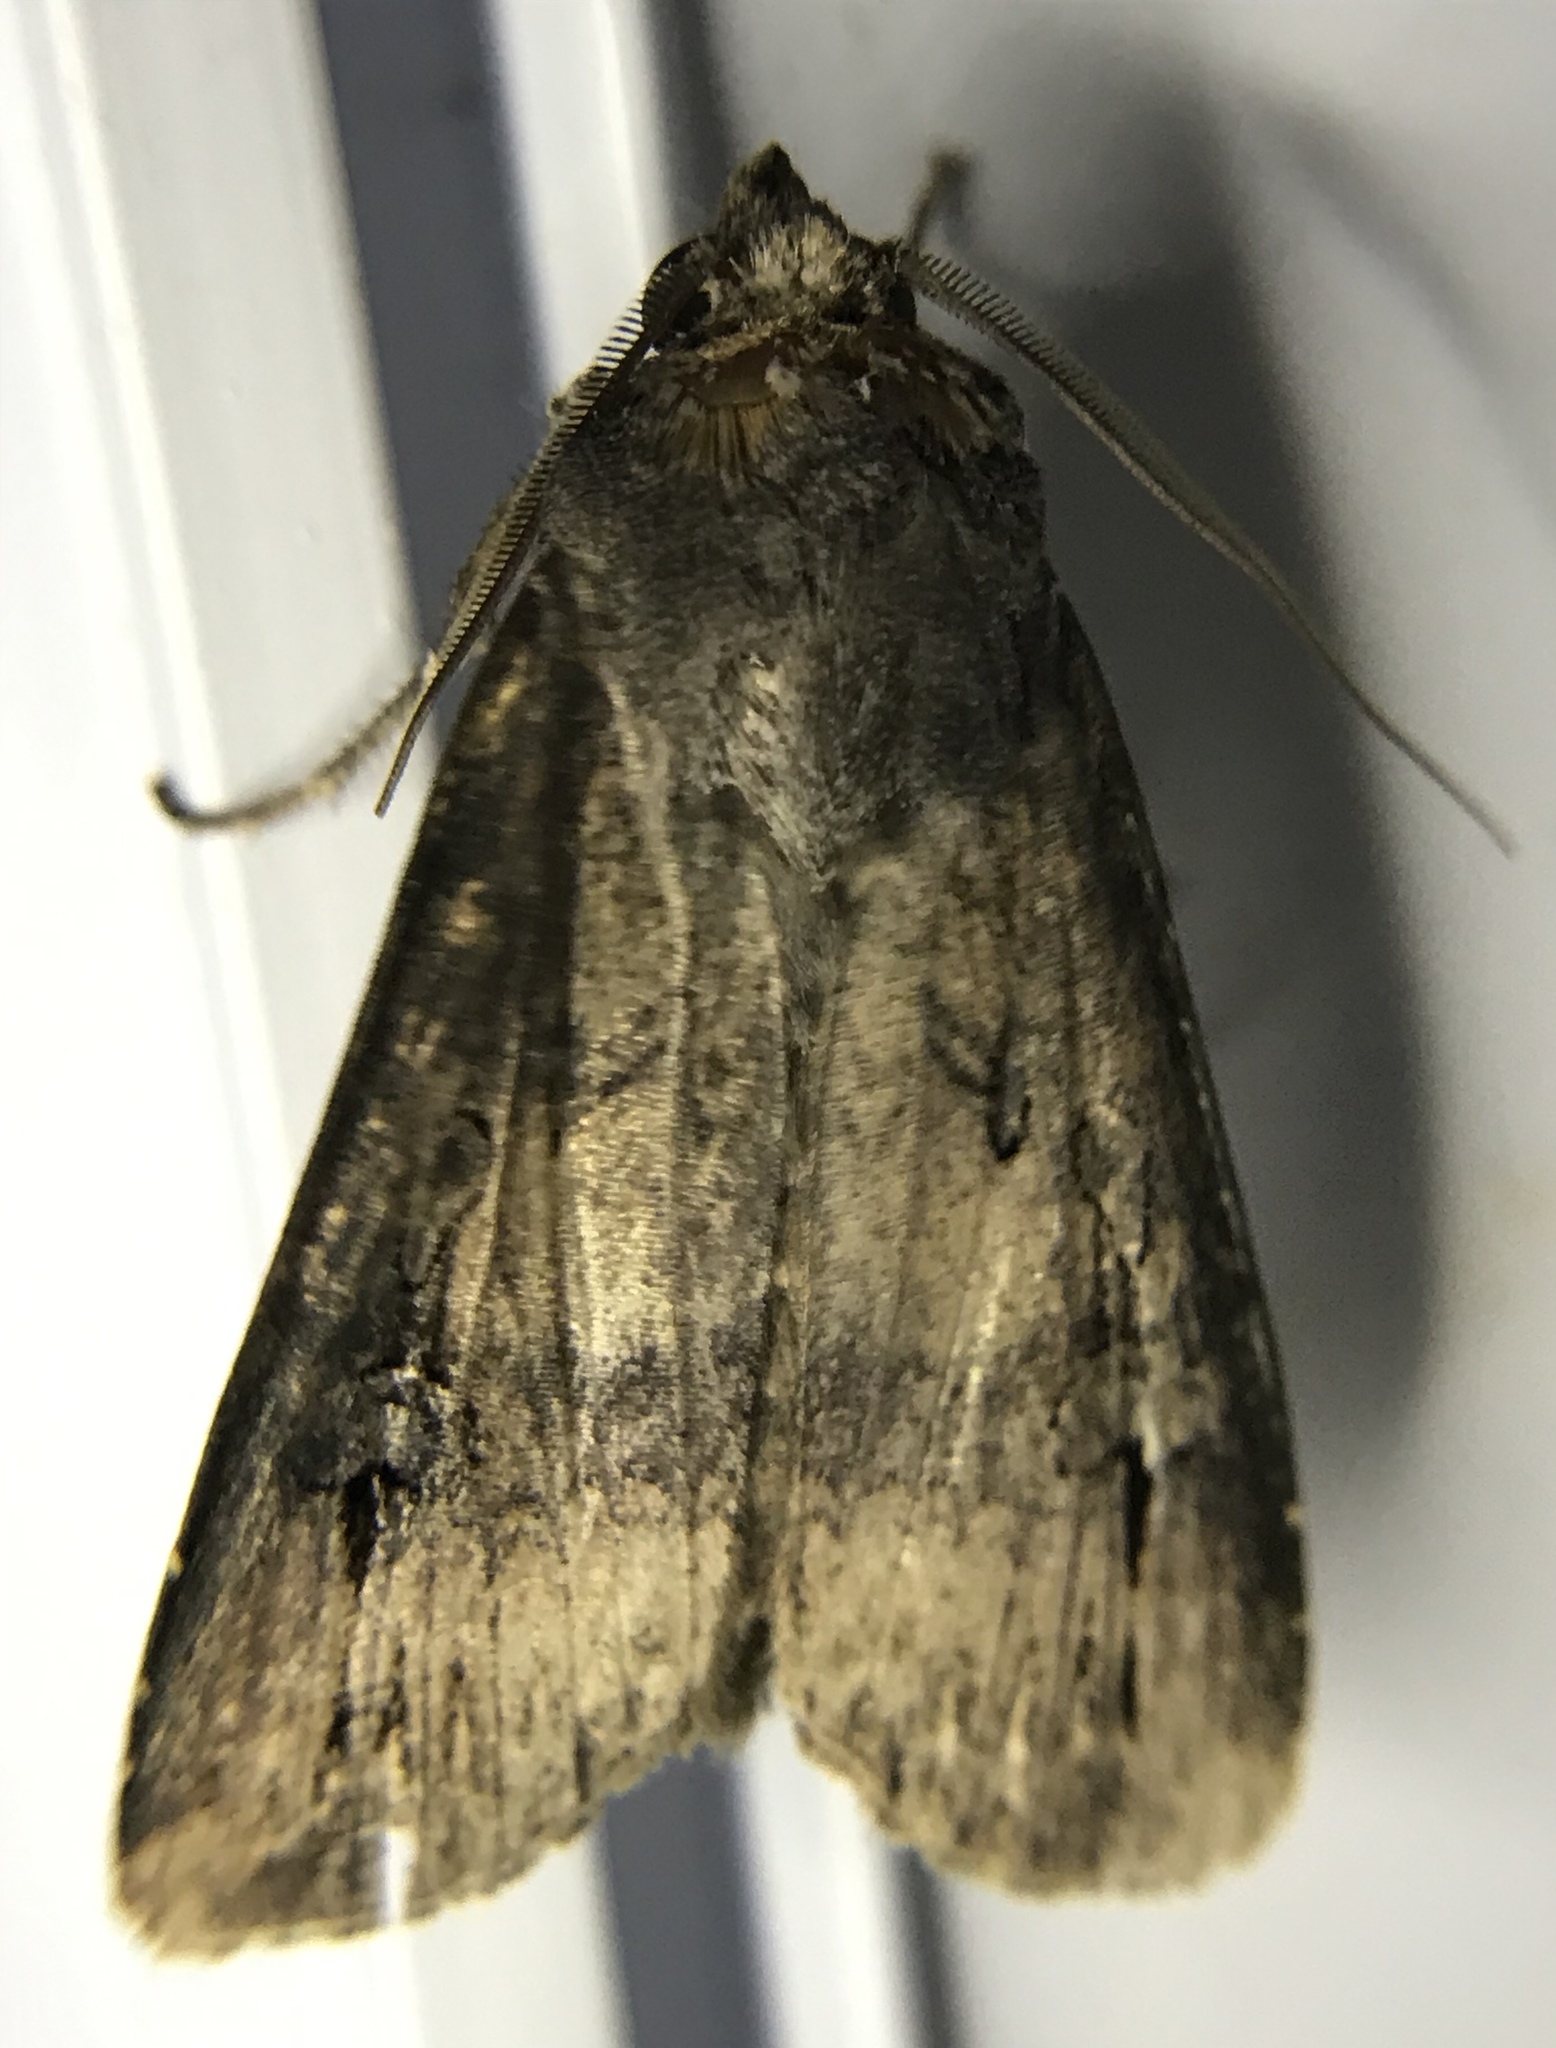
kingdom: Animalia
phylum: Arthropoda
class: Insecta
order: Lepidoptera
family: Noctuidae
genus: Agrotis
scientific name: Agrotis ipsilon
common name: Dark sword-grass
